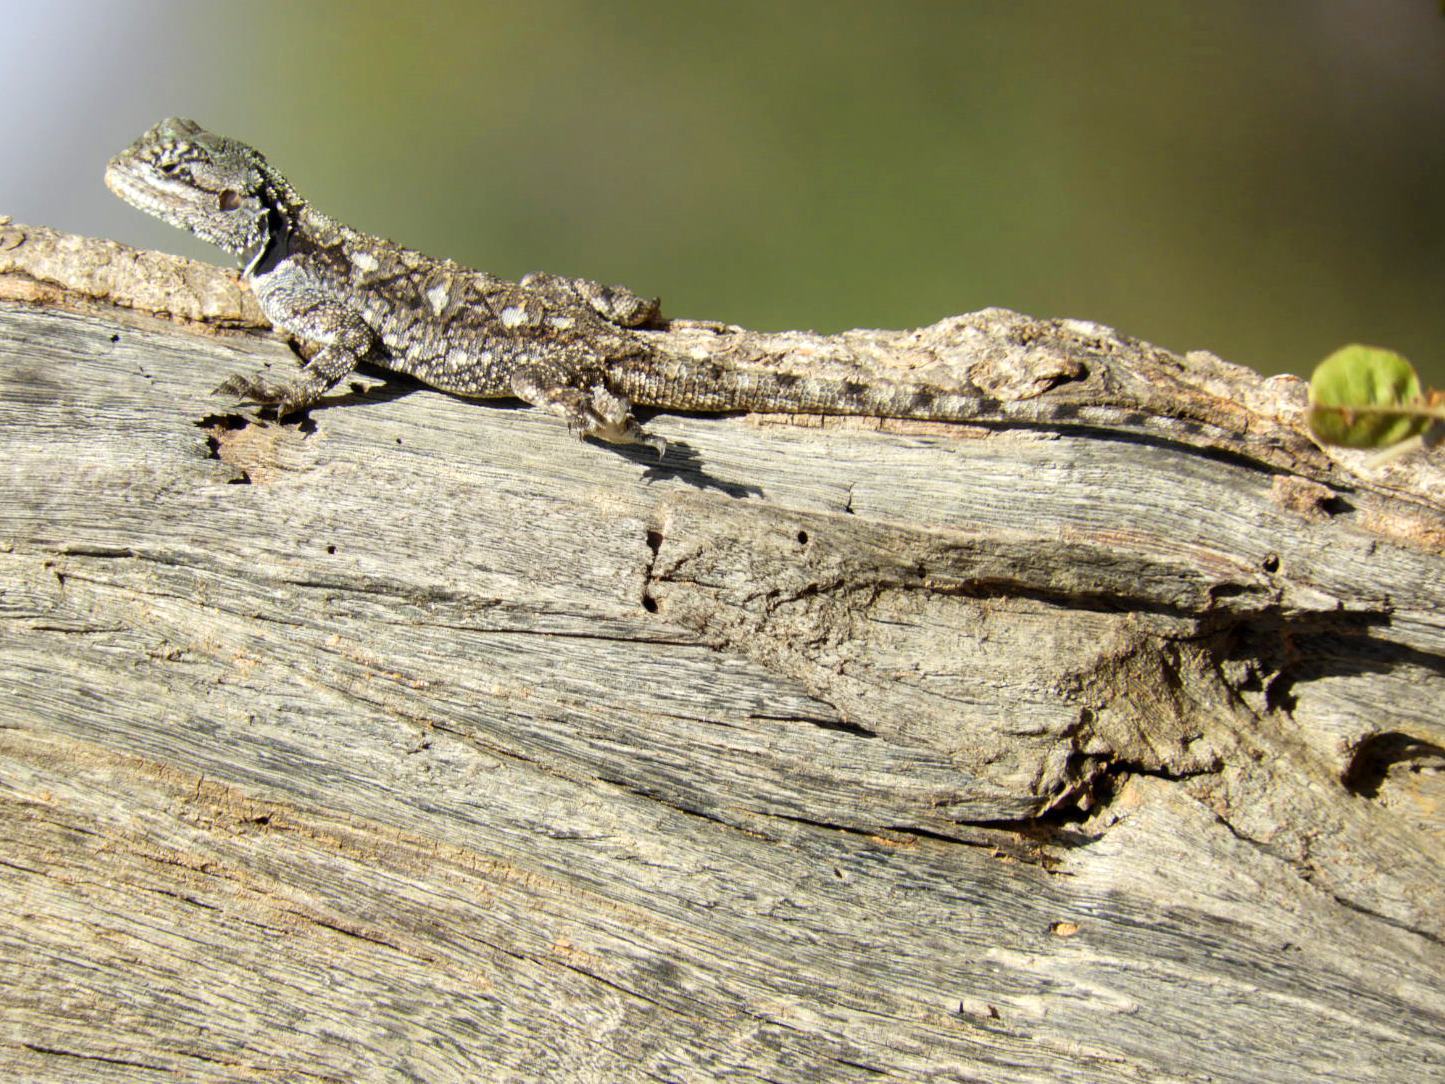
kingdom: Animalia
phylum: Chordata
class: Squamata
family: Agamidae
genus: Acanthocercus
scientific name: Acanthocercus atricollis
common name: Southern tree agama
